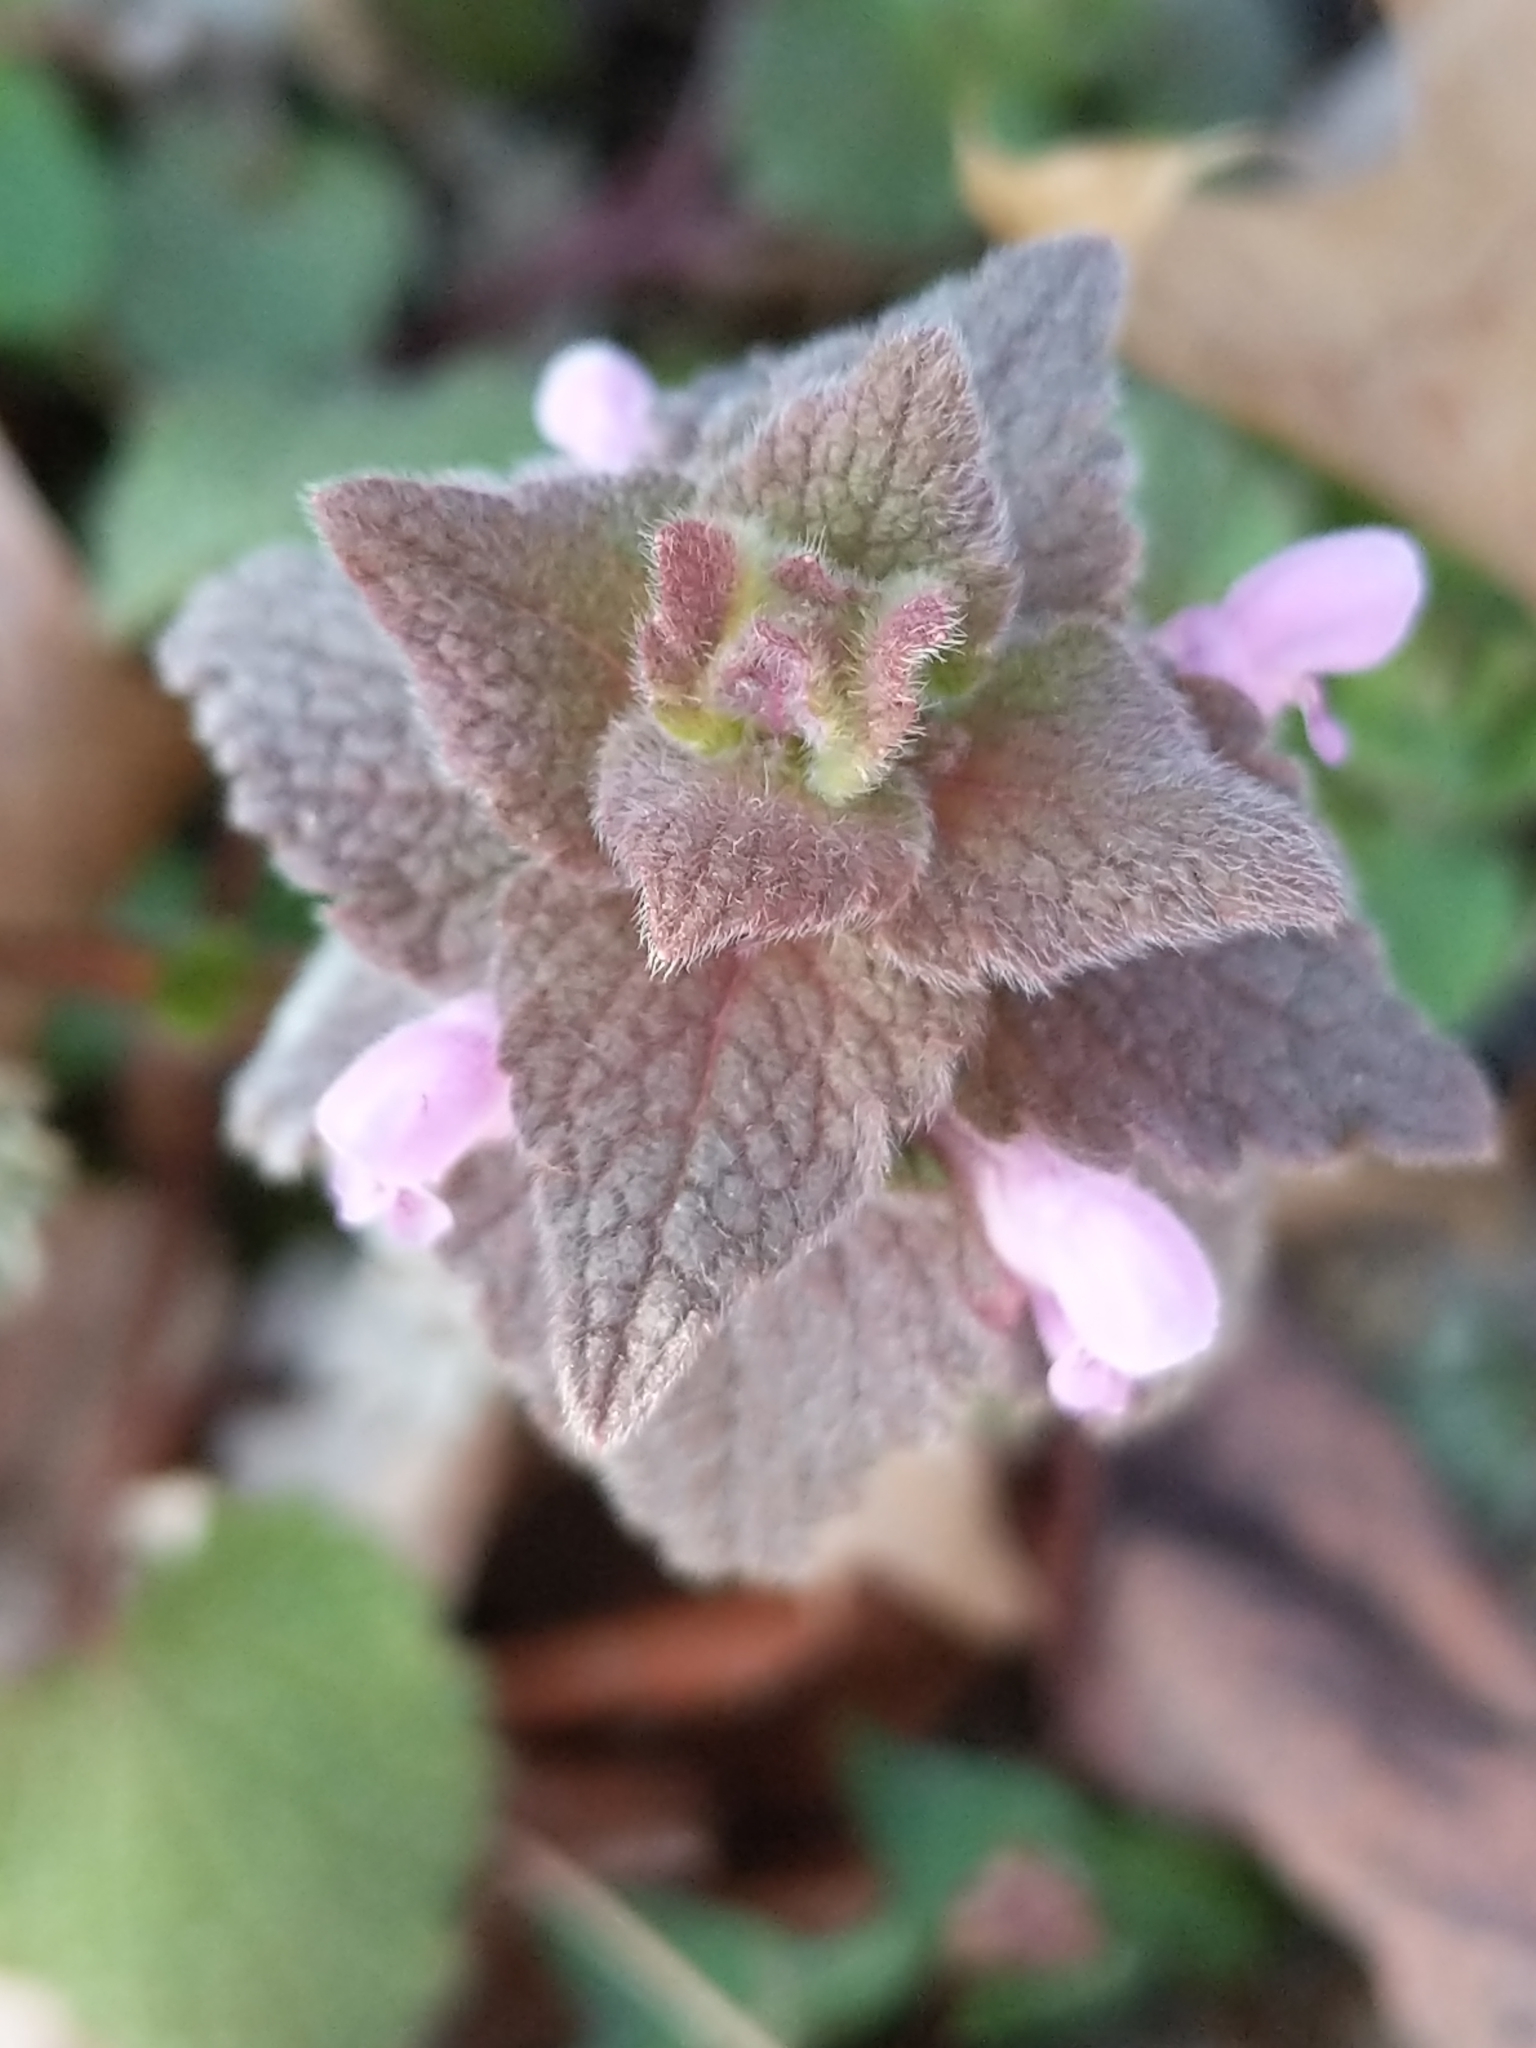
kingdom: Plantae
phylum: Tracheophyta
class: Magnoliopsida
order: Lamiales
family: Lamiaceae
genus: Lamium
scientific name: Lamium purpureum
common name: Red dead-nettle
